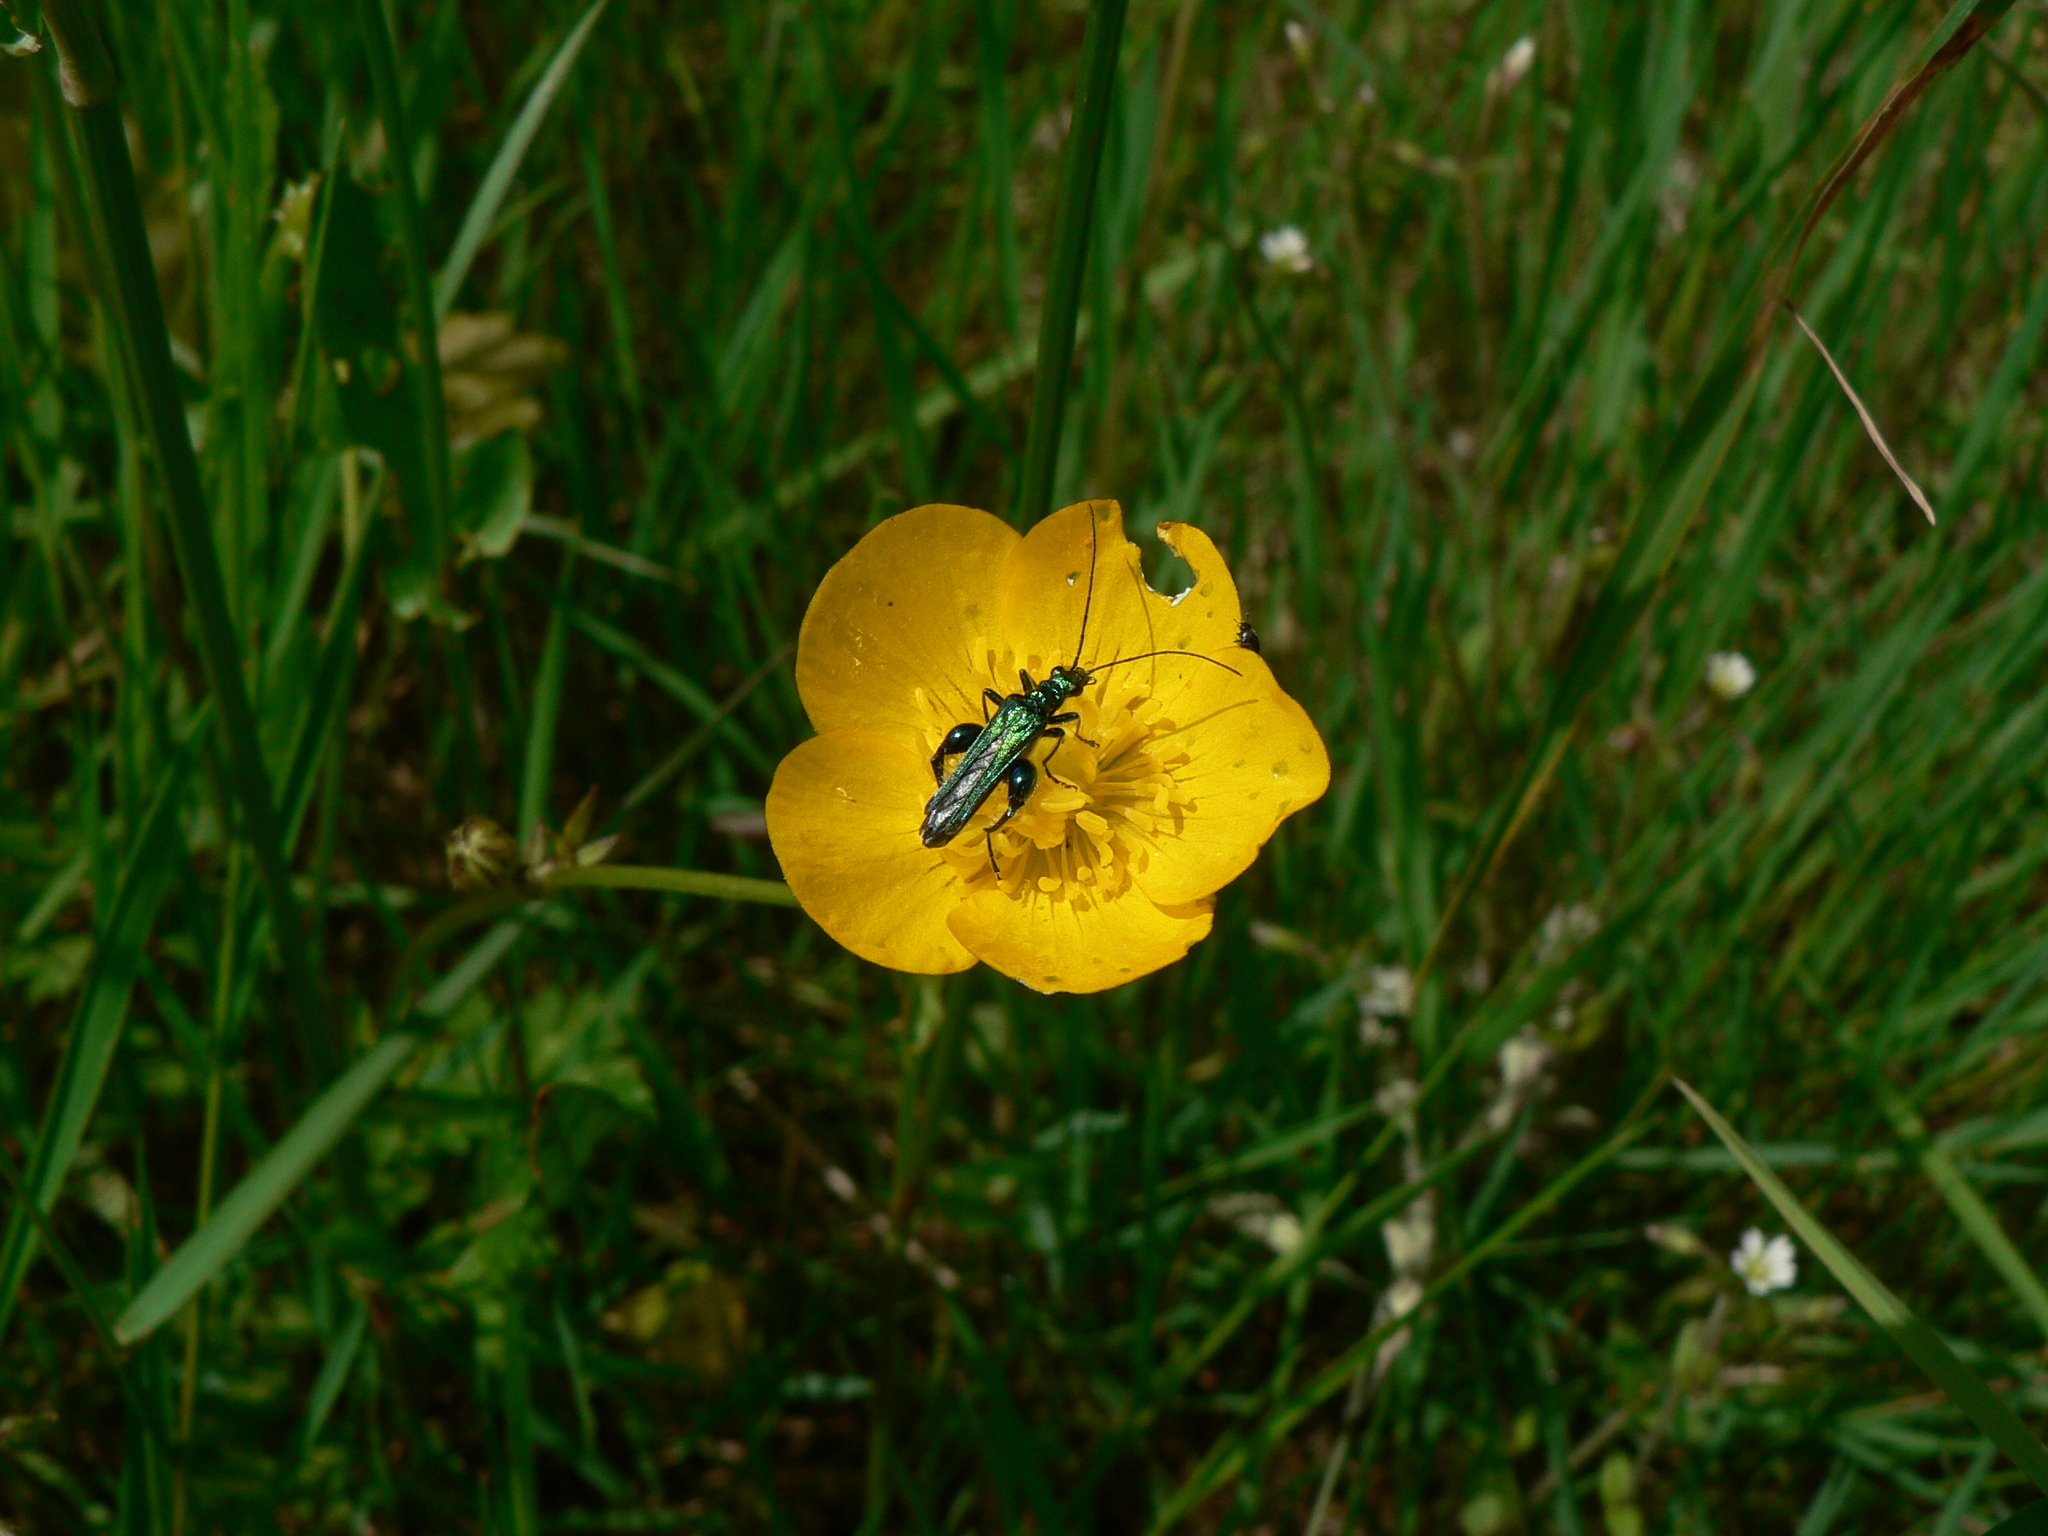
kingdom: Animalia
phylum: Arthropoda
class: Insecta
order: Coleoptera
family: Oedemeridae
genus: Oedemera
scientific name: Oedemera nobilis
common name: Swollen-thighed beetle
